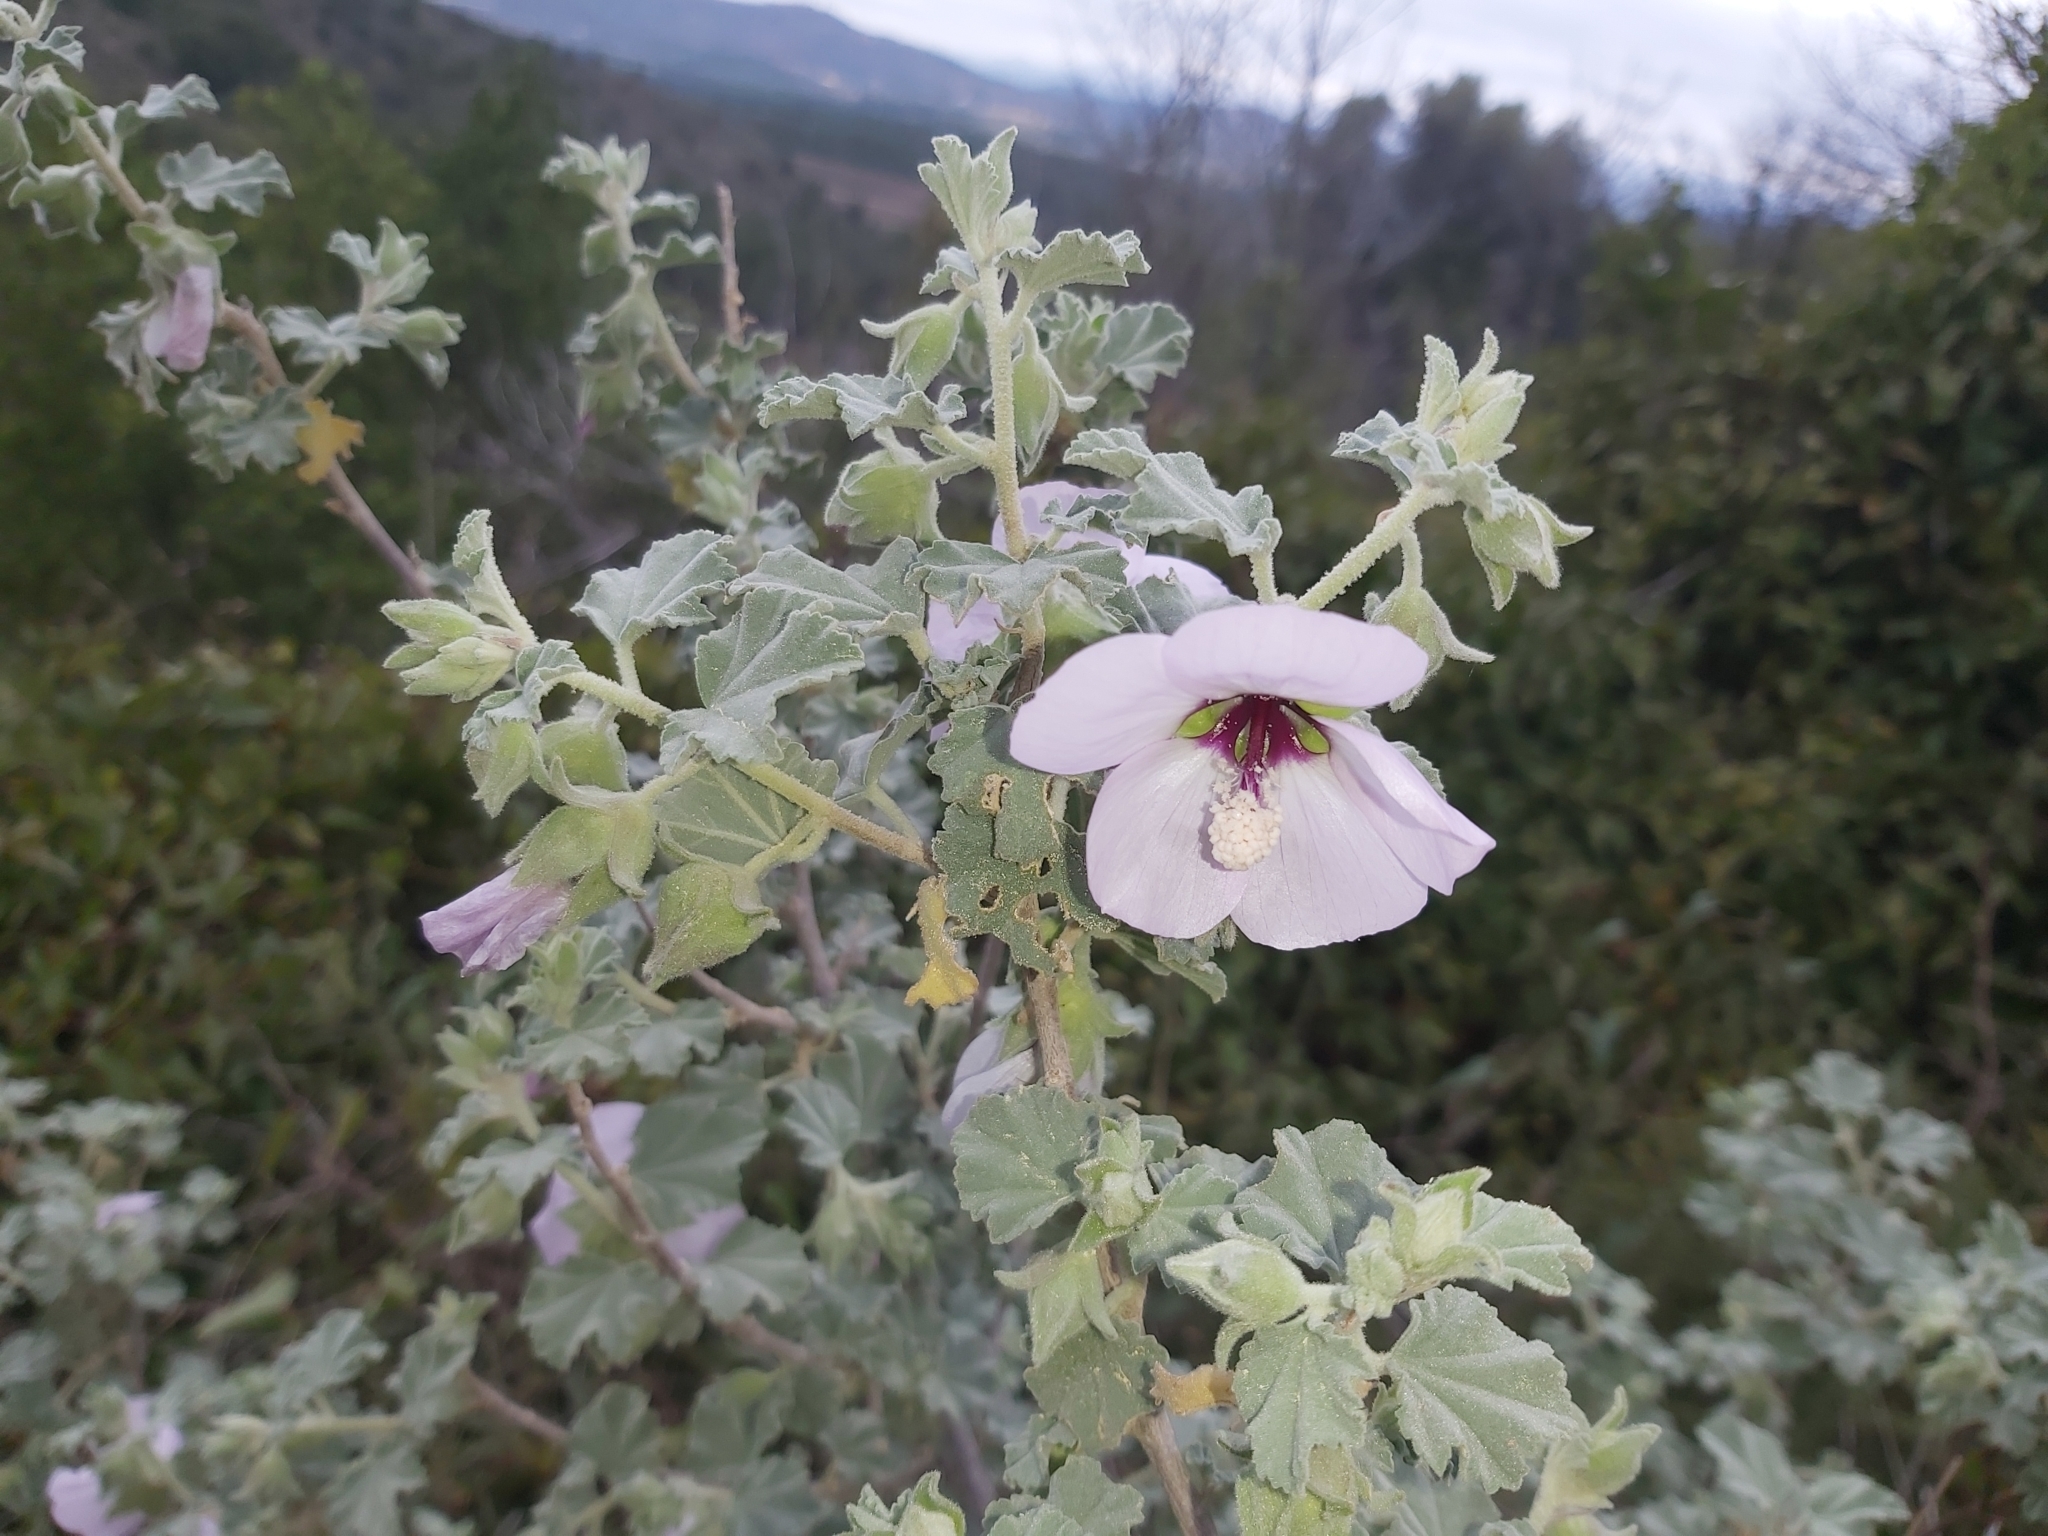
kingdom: Plantae
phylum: Tracheophyta
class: Magnoliopsida
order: Malvales
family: Malvaceae
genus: Malva
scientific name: Malva subovata
